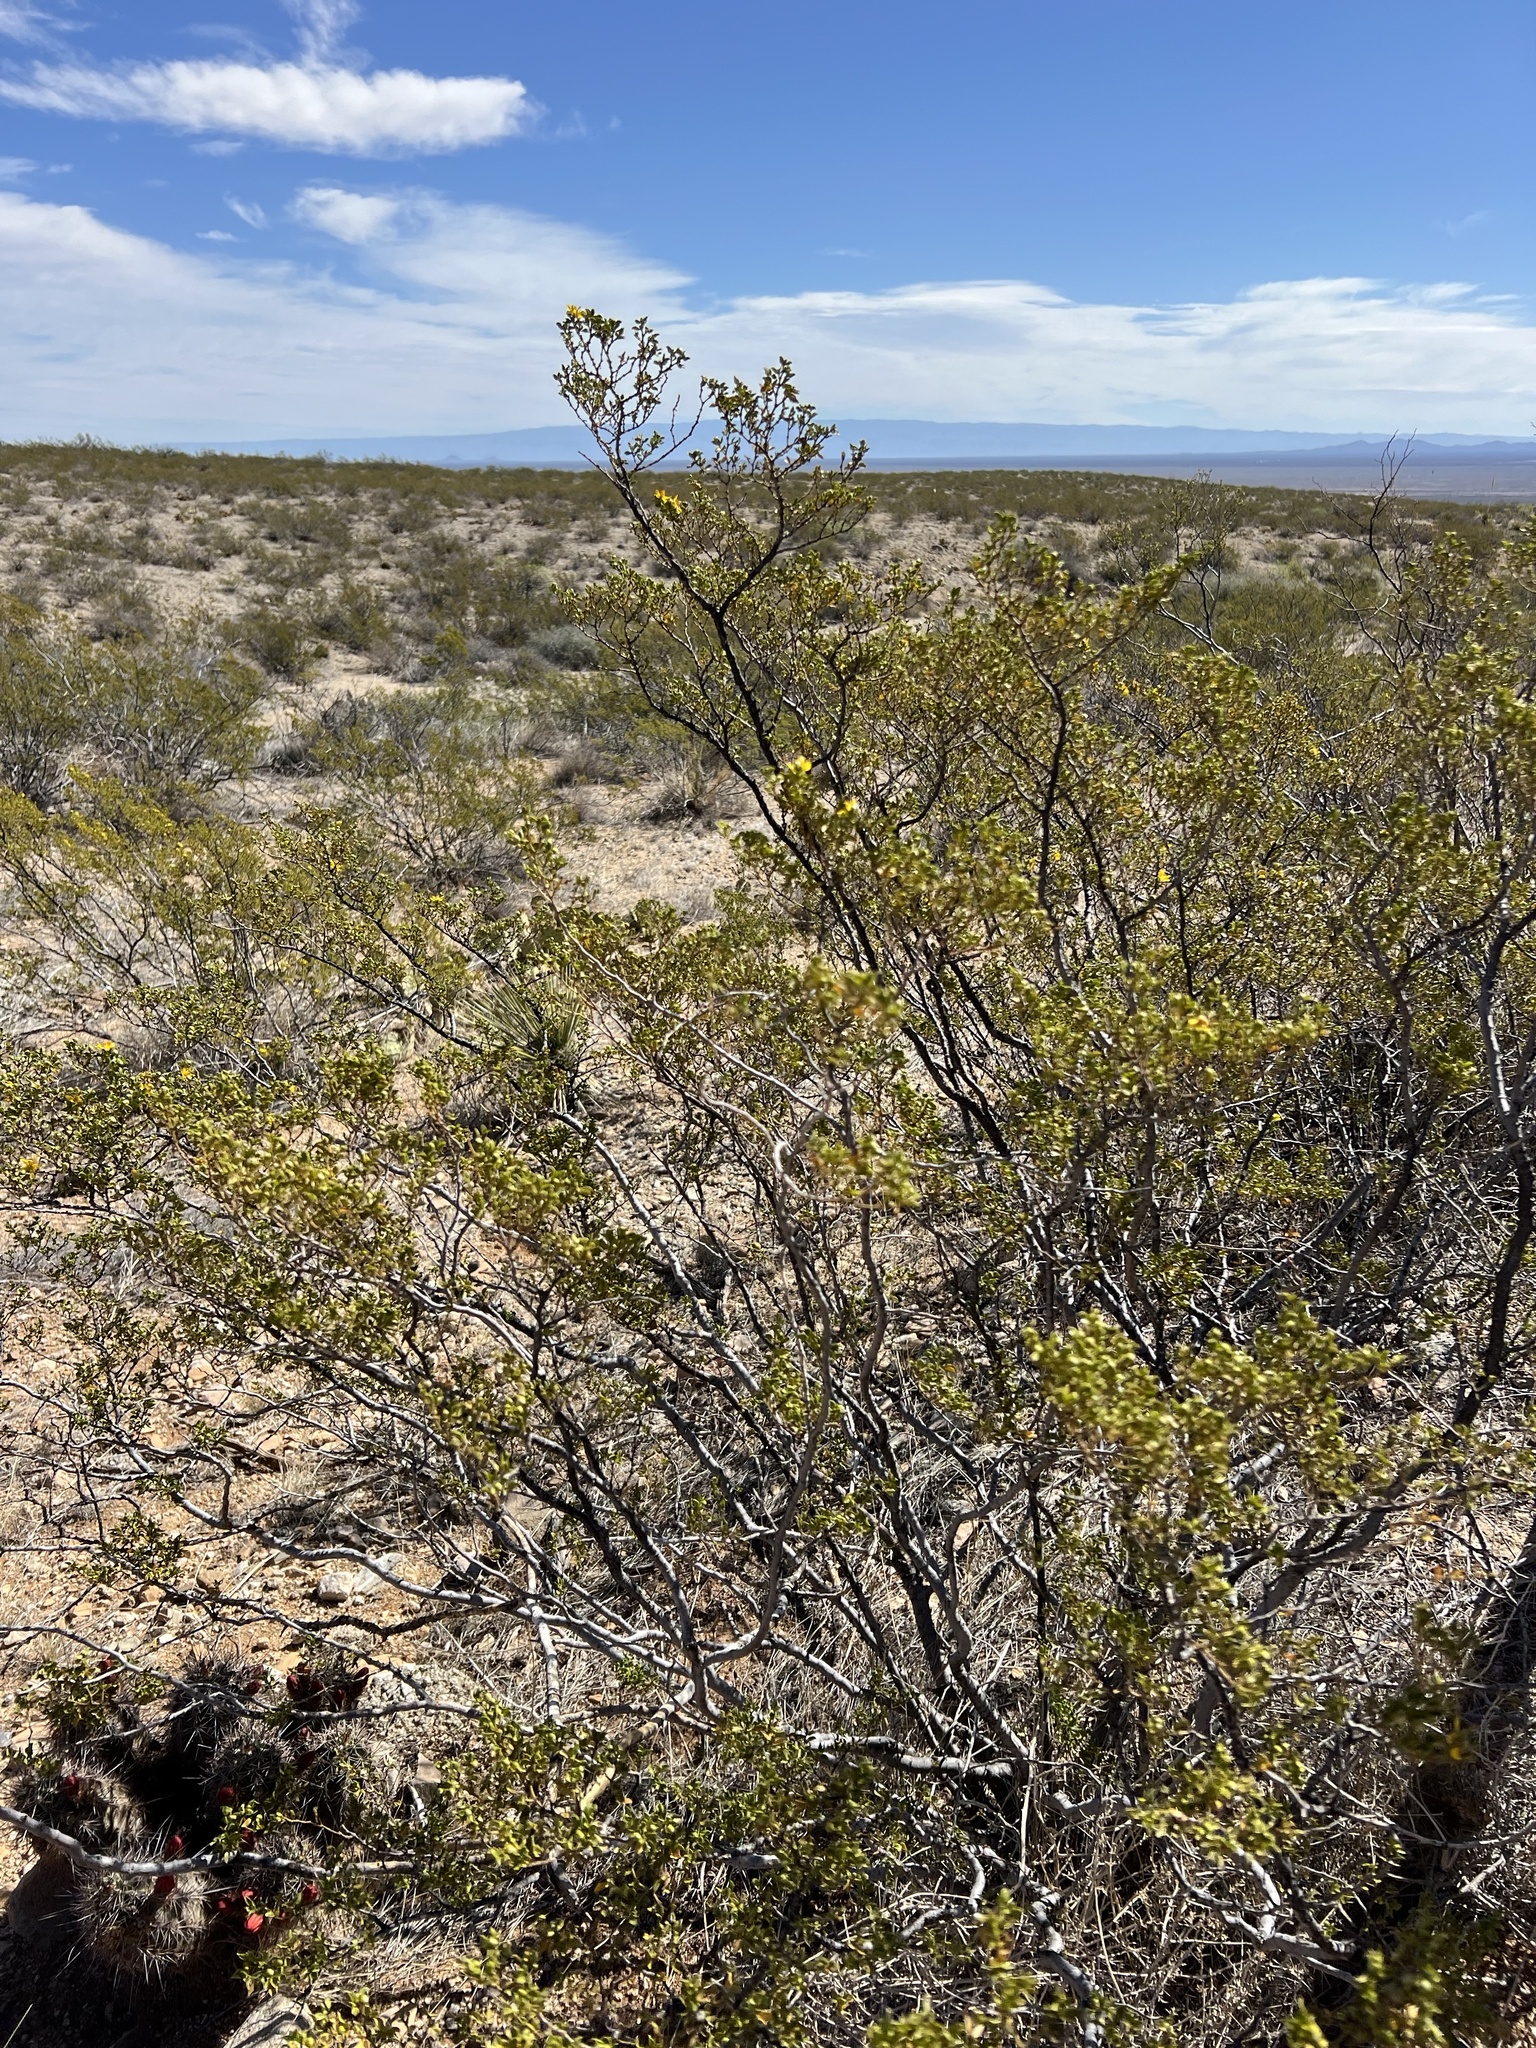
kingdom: Plantae
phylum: Tracheophyta
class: Magnoliopsida
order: Zygophyllales
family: Zygophyllaceae
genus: Larrea
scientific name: Larrea tridentata
